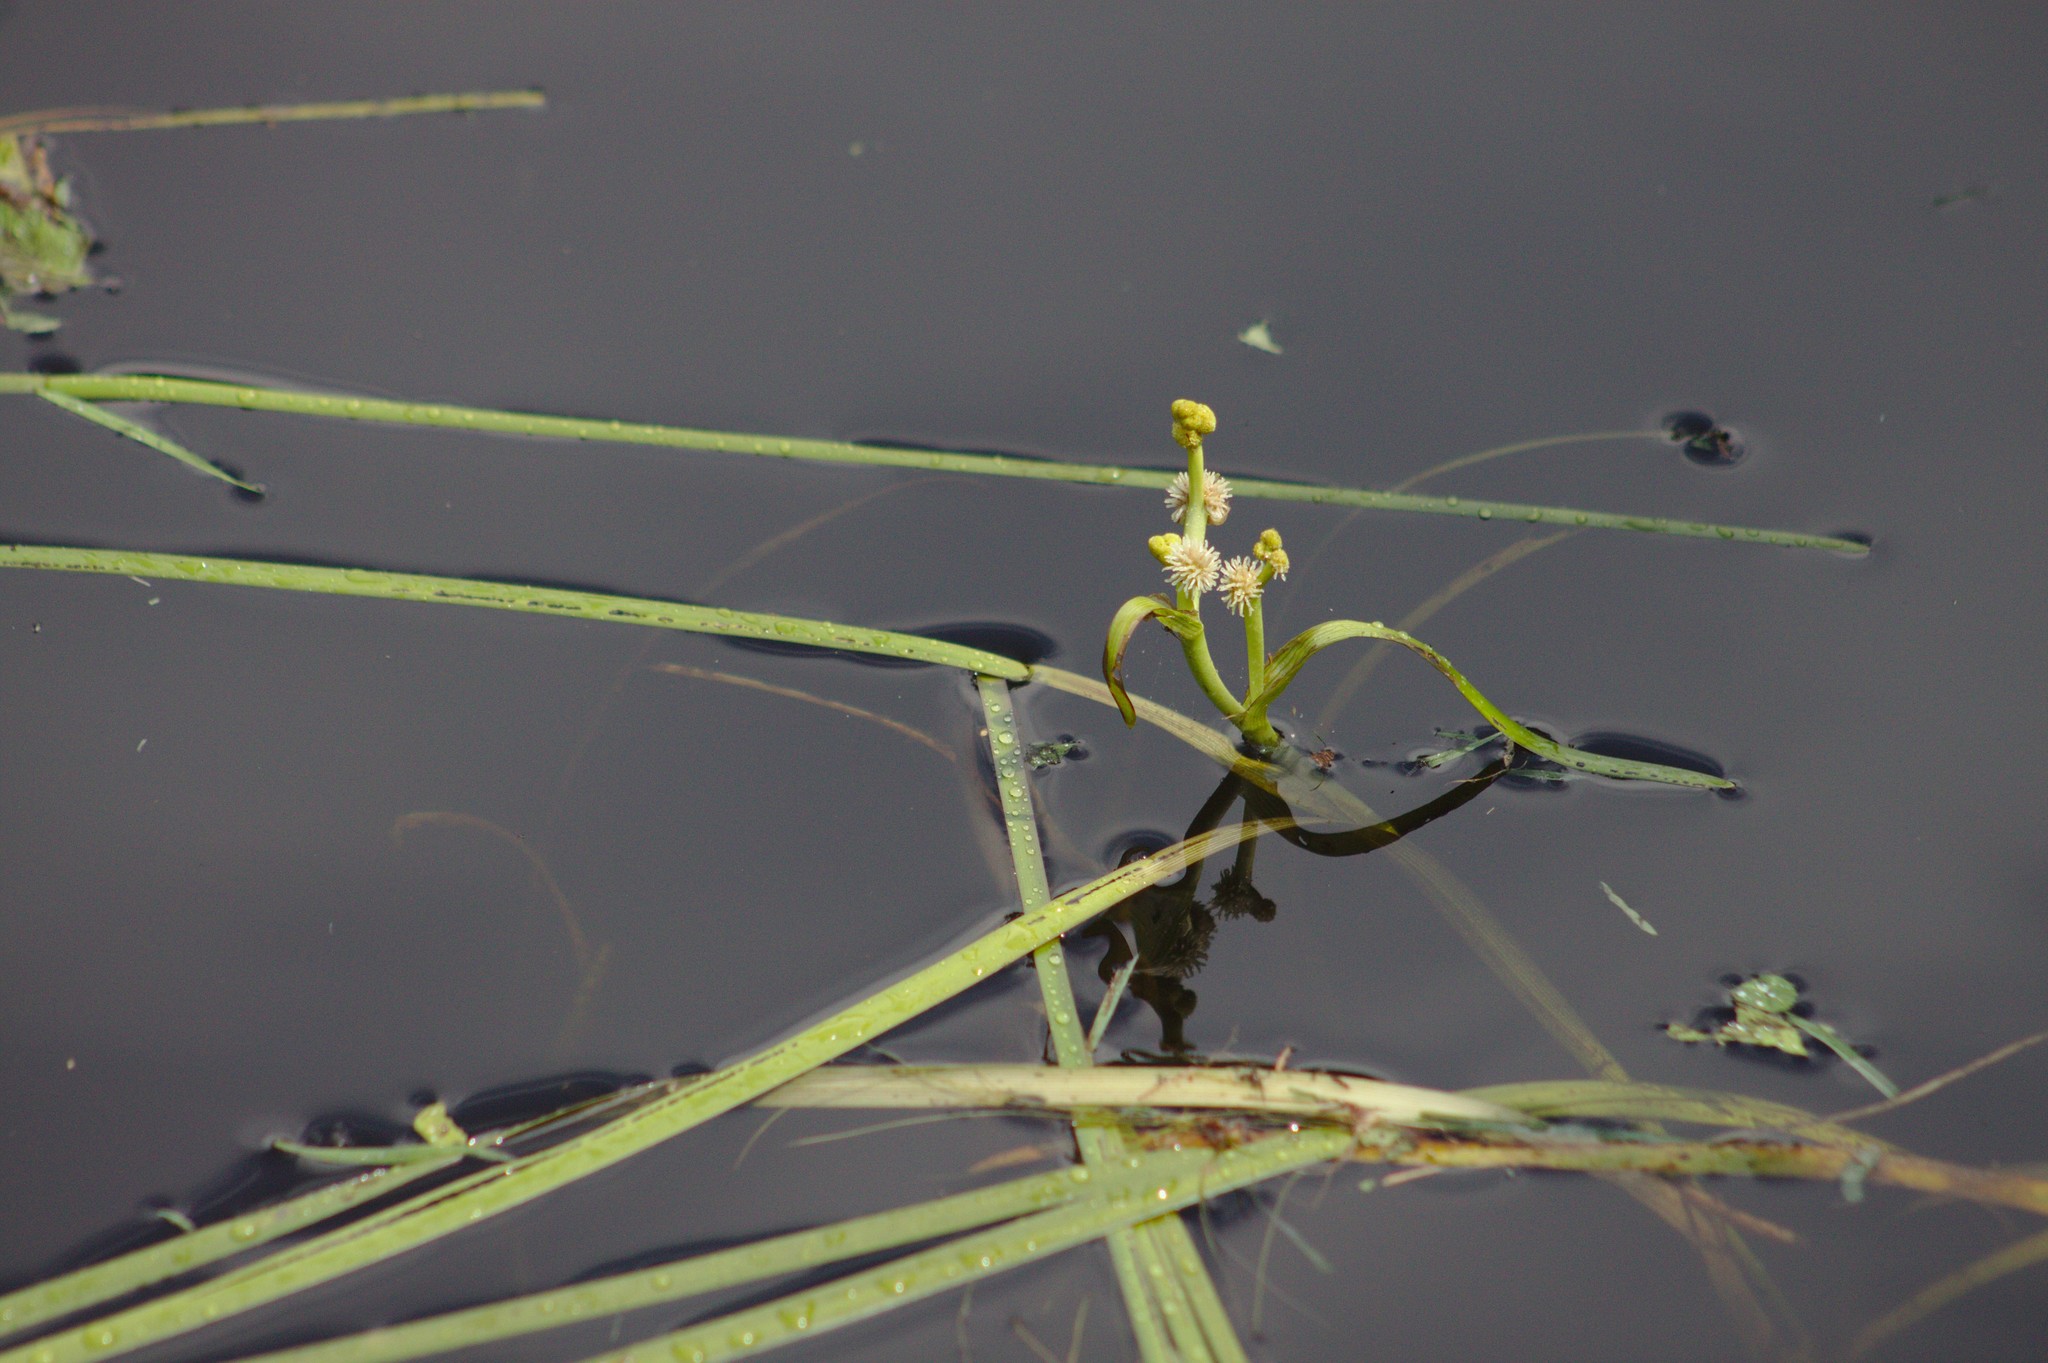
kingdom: Plantae
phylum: Tracheophyta
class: Liliopsida
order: Poales
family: Typhaceae
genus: Sparganium
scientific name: Sparganium fluctuans
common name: Floating burreed
